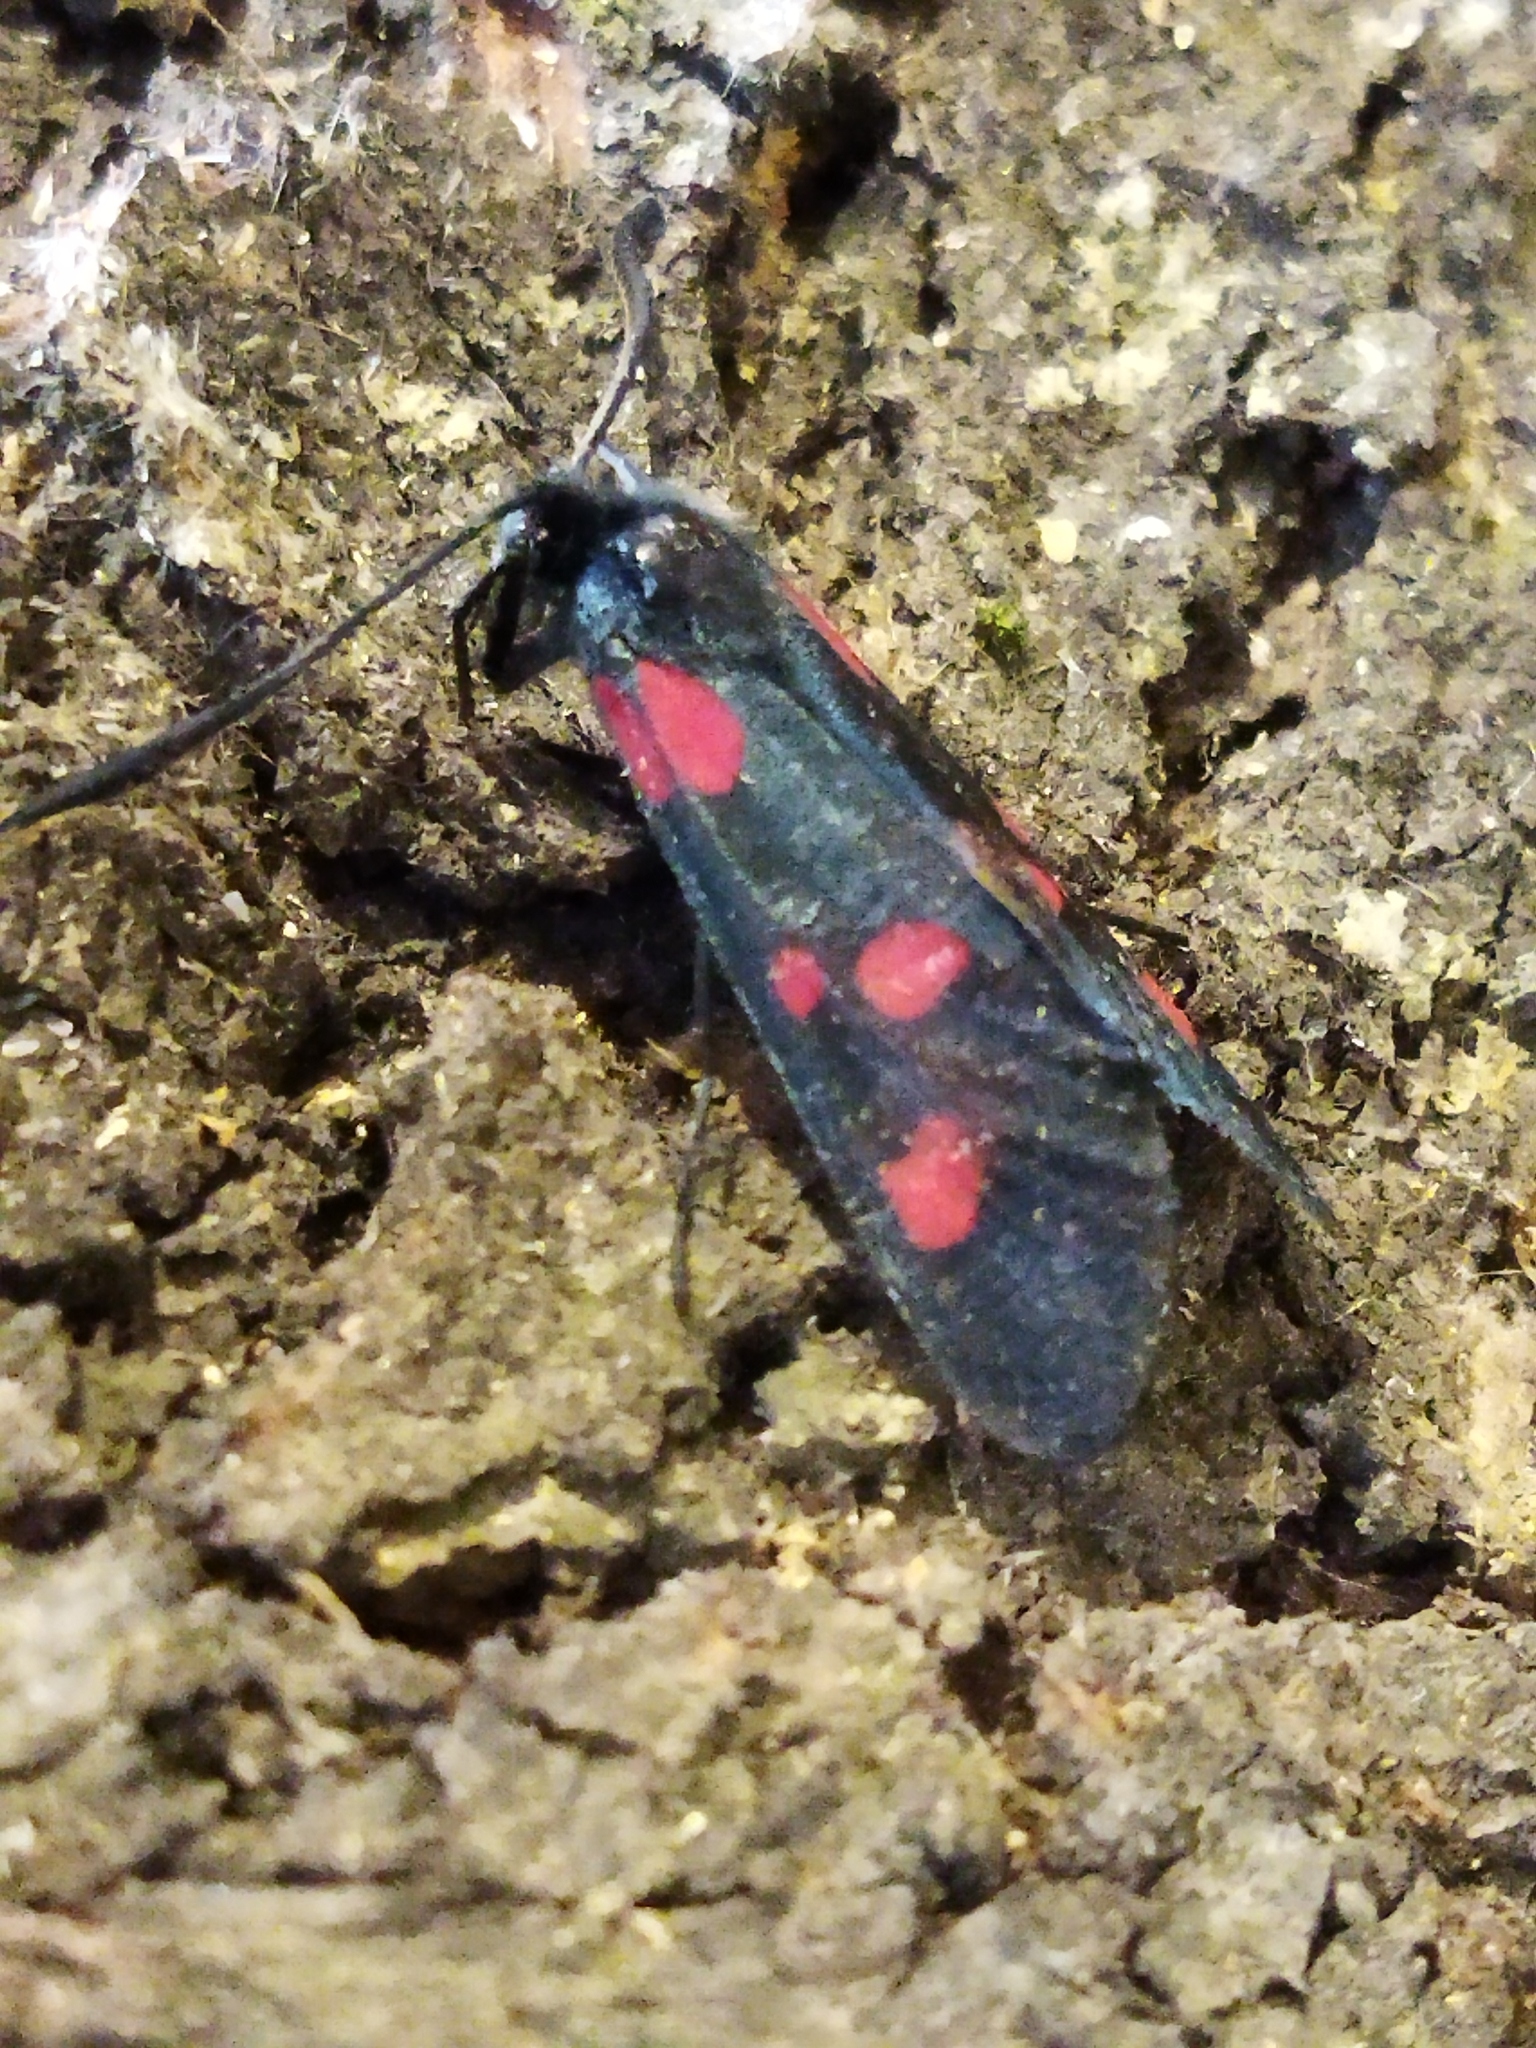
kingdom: Animalia
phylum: Arthropoda
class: Insecta
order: Lepidoptera
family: Zygaenidae
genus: Zygaena
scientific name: Zygaena lonicerae
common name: Narrow-bordered five-spot burnet
